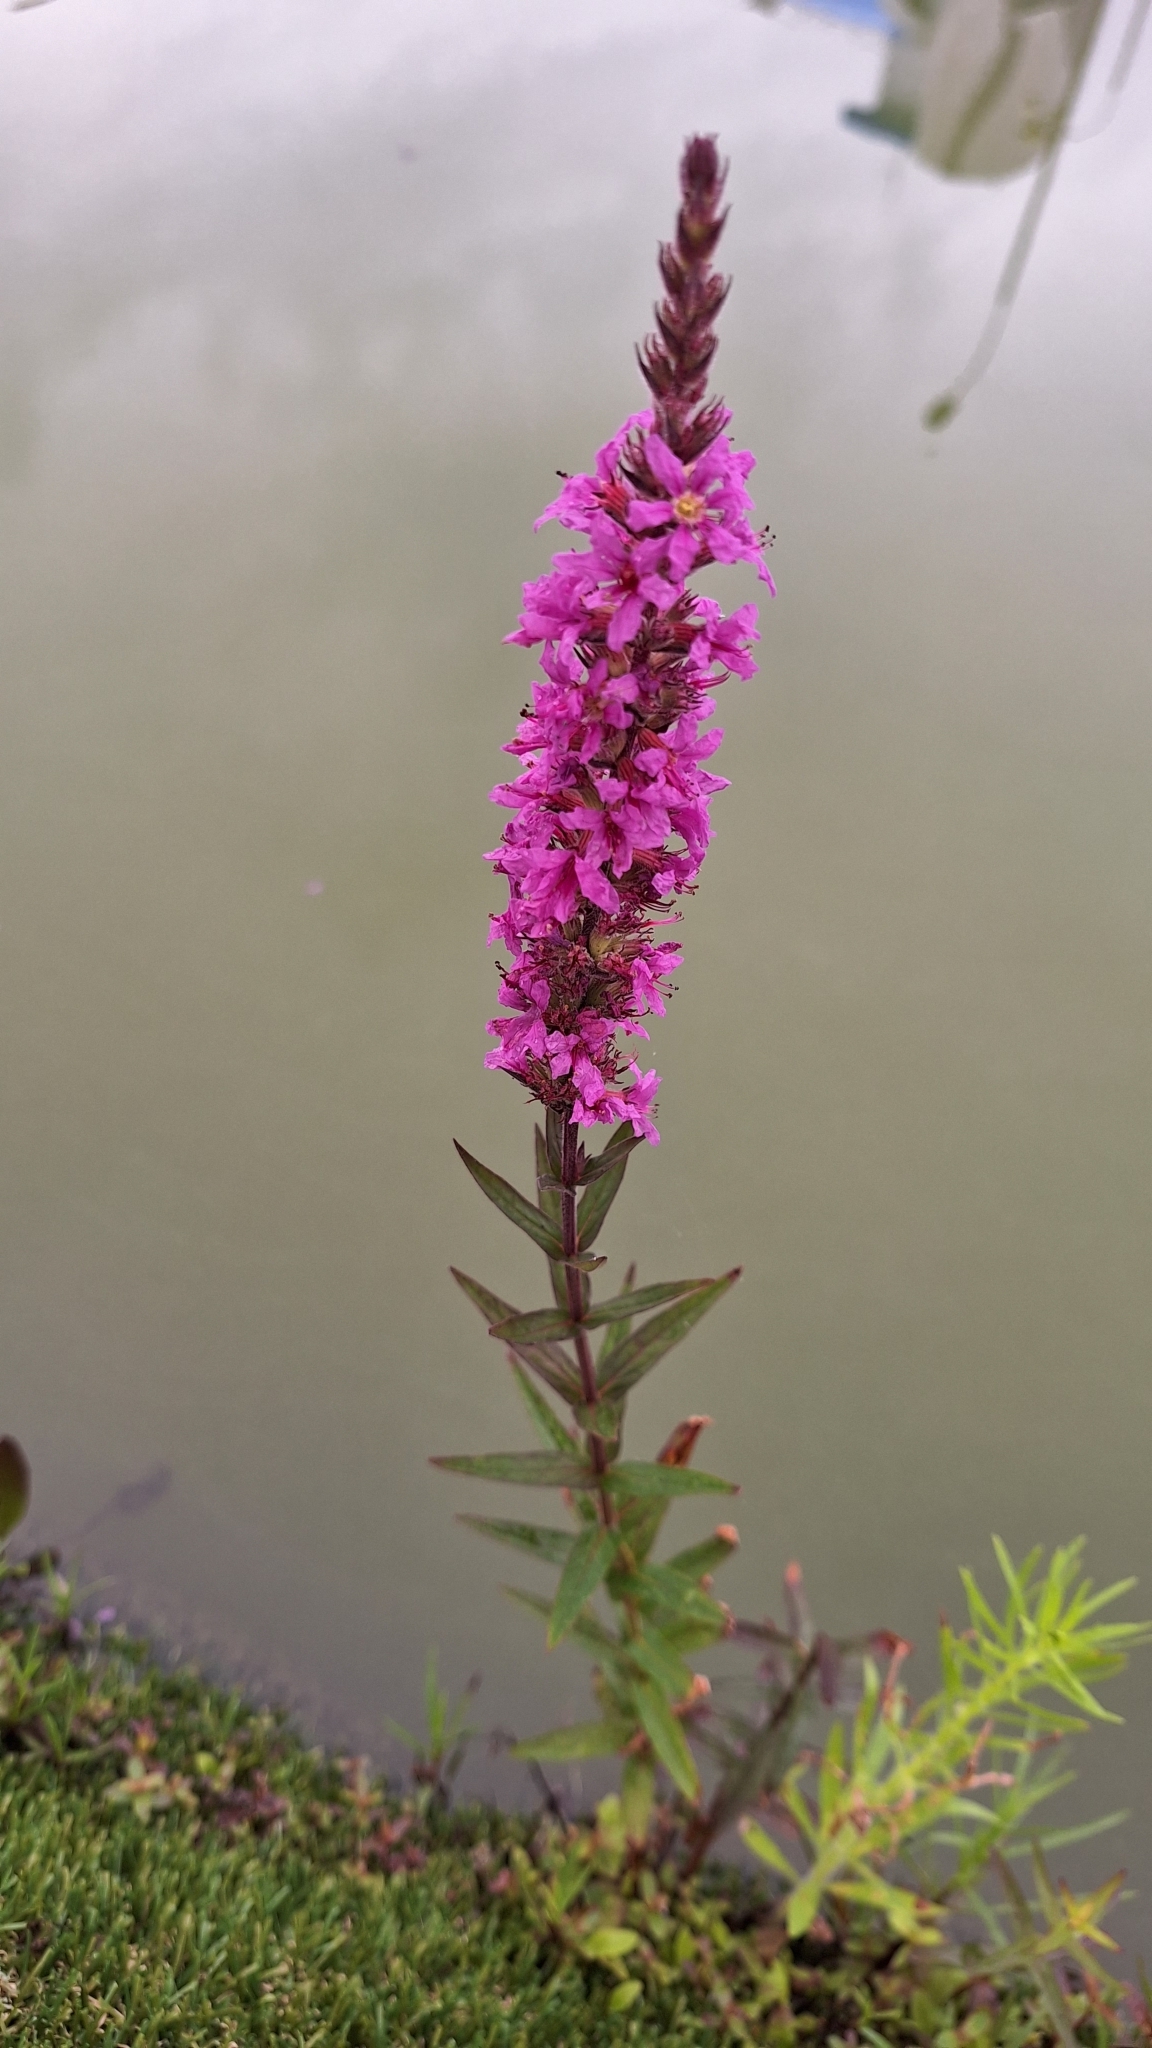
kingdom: Plantae
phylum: Tracheophyta
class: Magnoliopsida
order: Myrtales
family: Lythraceae
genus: Lythrum
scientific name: Lythrum salicaria
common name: Purple loosestrife
